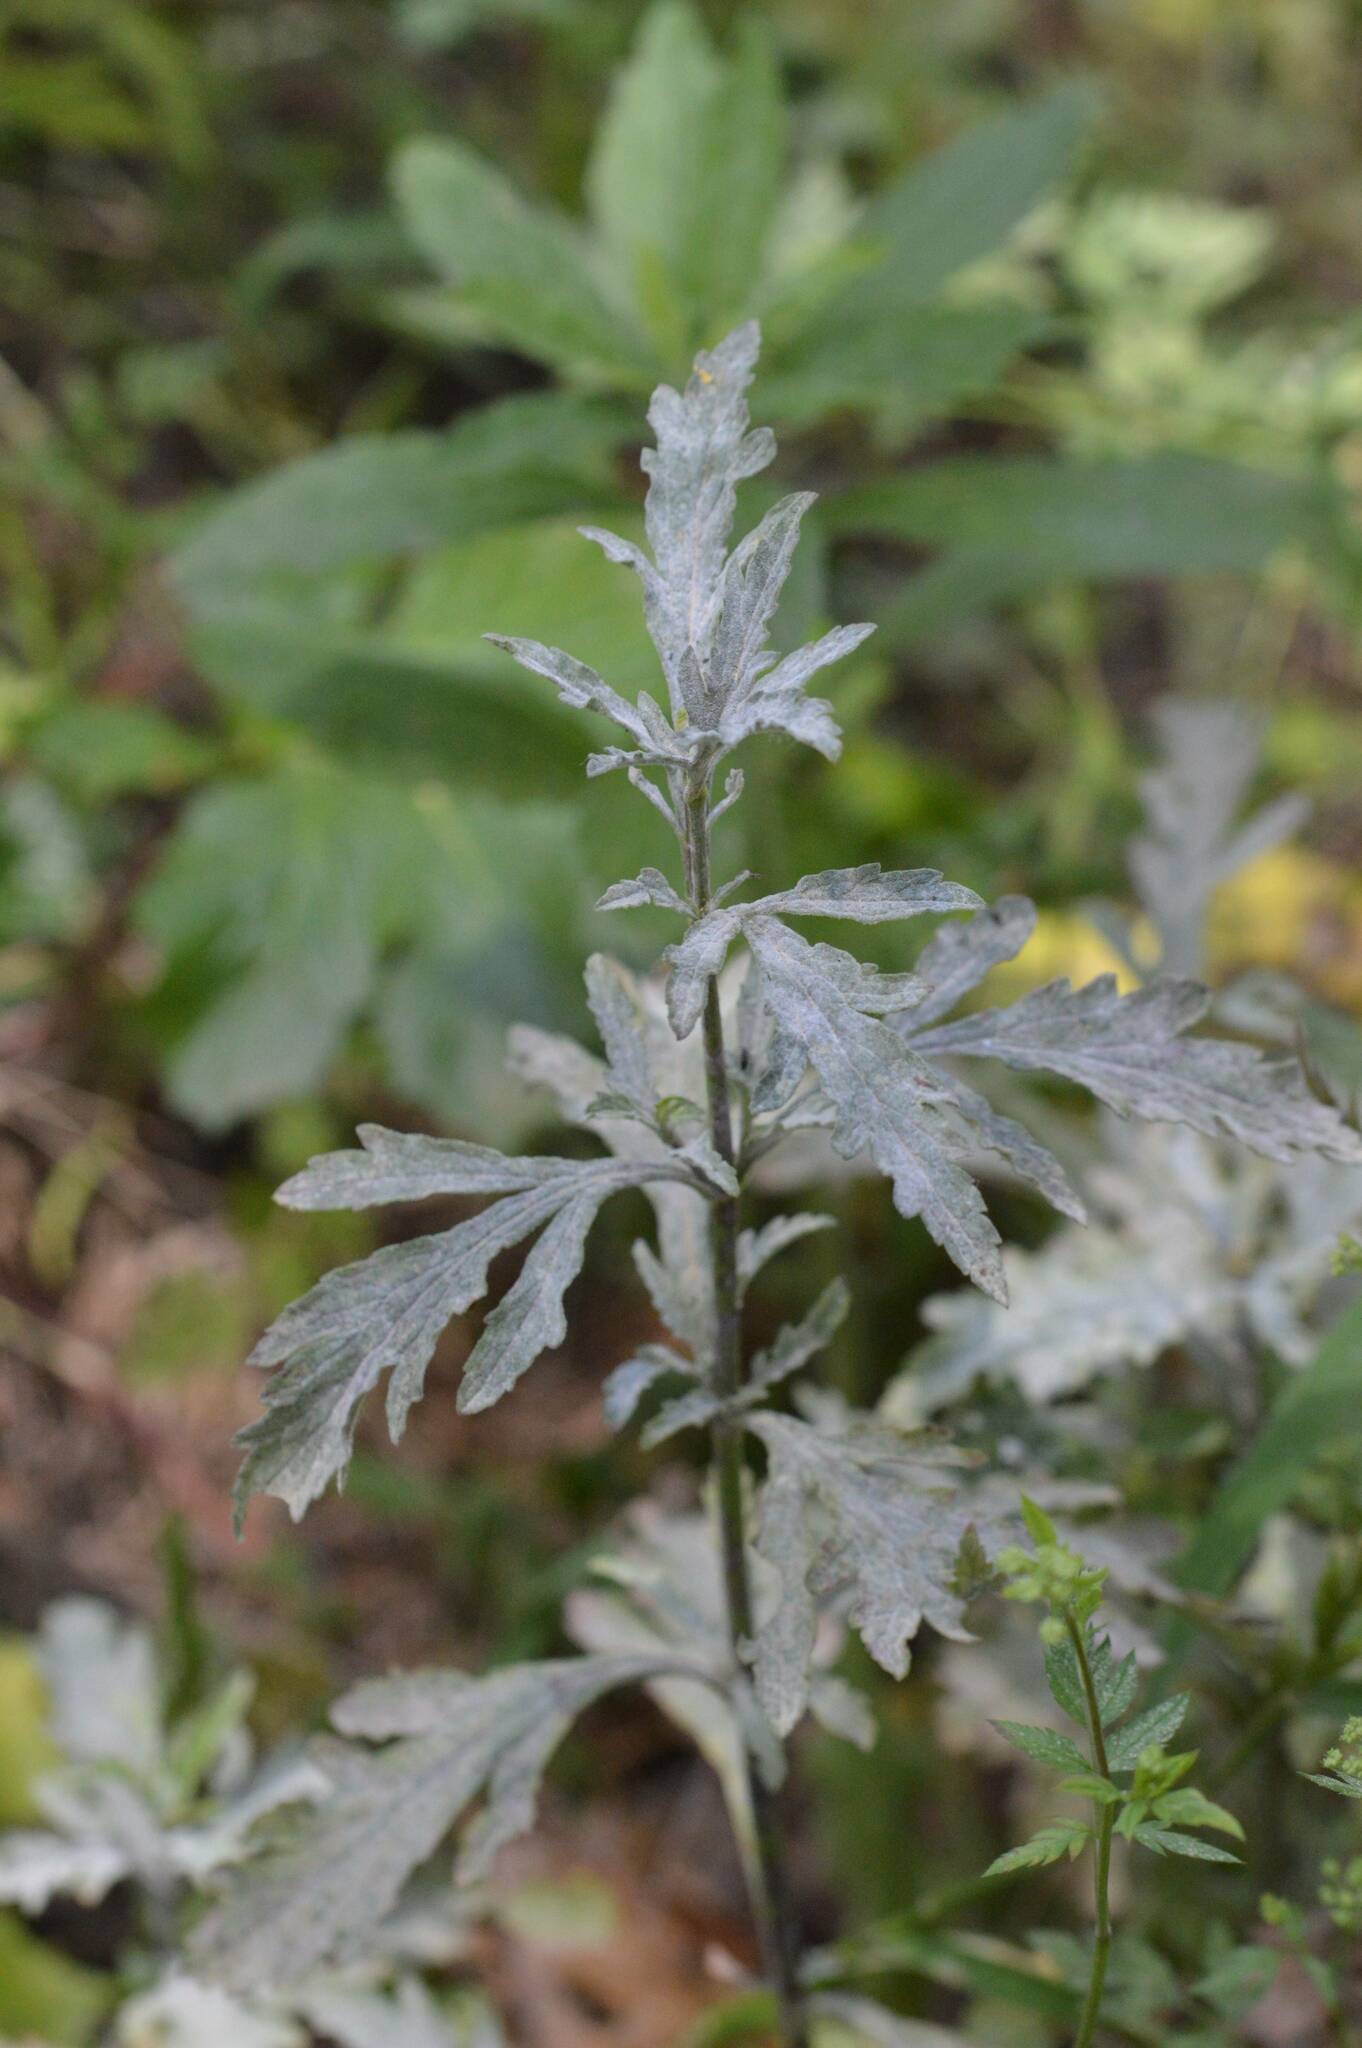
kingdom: Fungi
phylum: Ascomycota
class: Leotiomycetes
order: Helotiales
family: Erysiphaceae
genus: Golovinomyces
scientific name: Golovinomyces artemisiae
